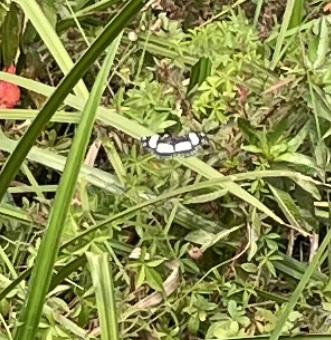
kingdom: Animalia
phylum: Arthropoda
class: Insecta
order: Lepidoptera
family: Nymphalidae
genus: Neptis
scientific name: Neptis serena
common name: River sailer
